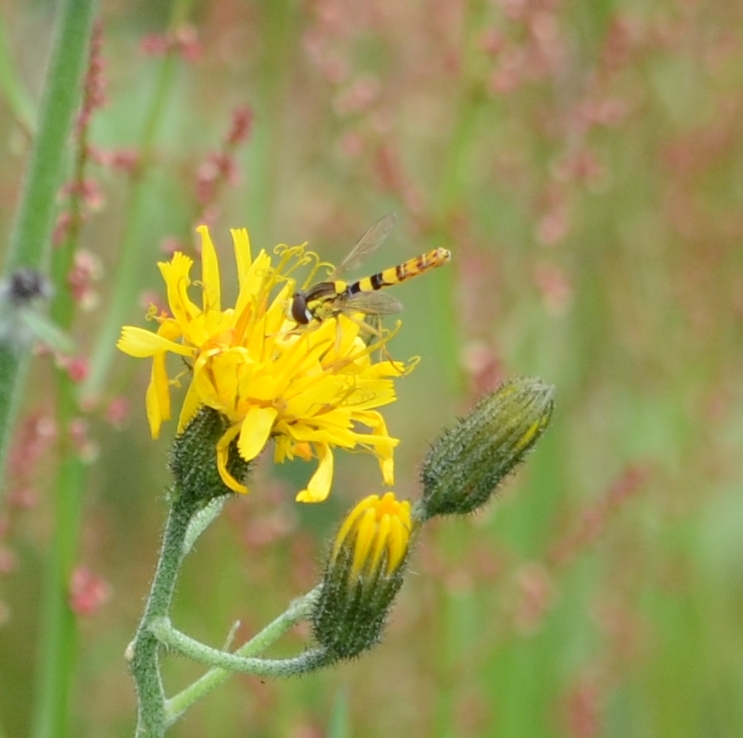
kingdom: Animalia
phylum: Arthropoda
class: Insecta
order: Diptera
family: Syrphidae
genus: Sphaerophoria
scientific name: Sphaerophoria scripta
